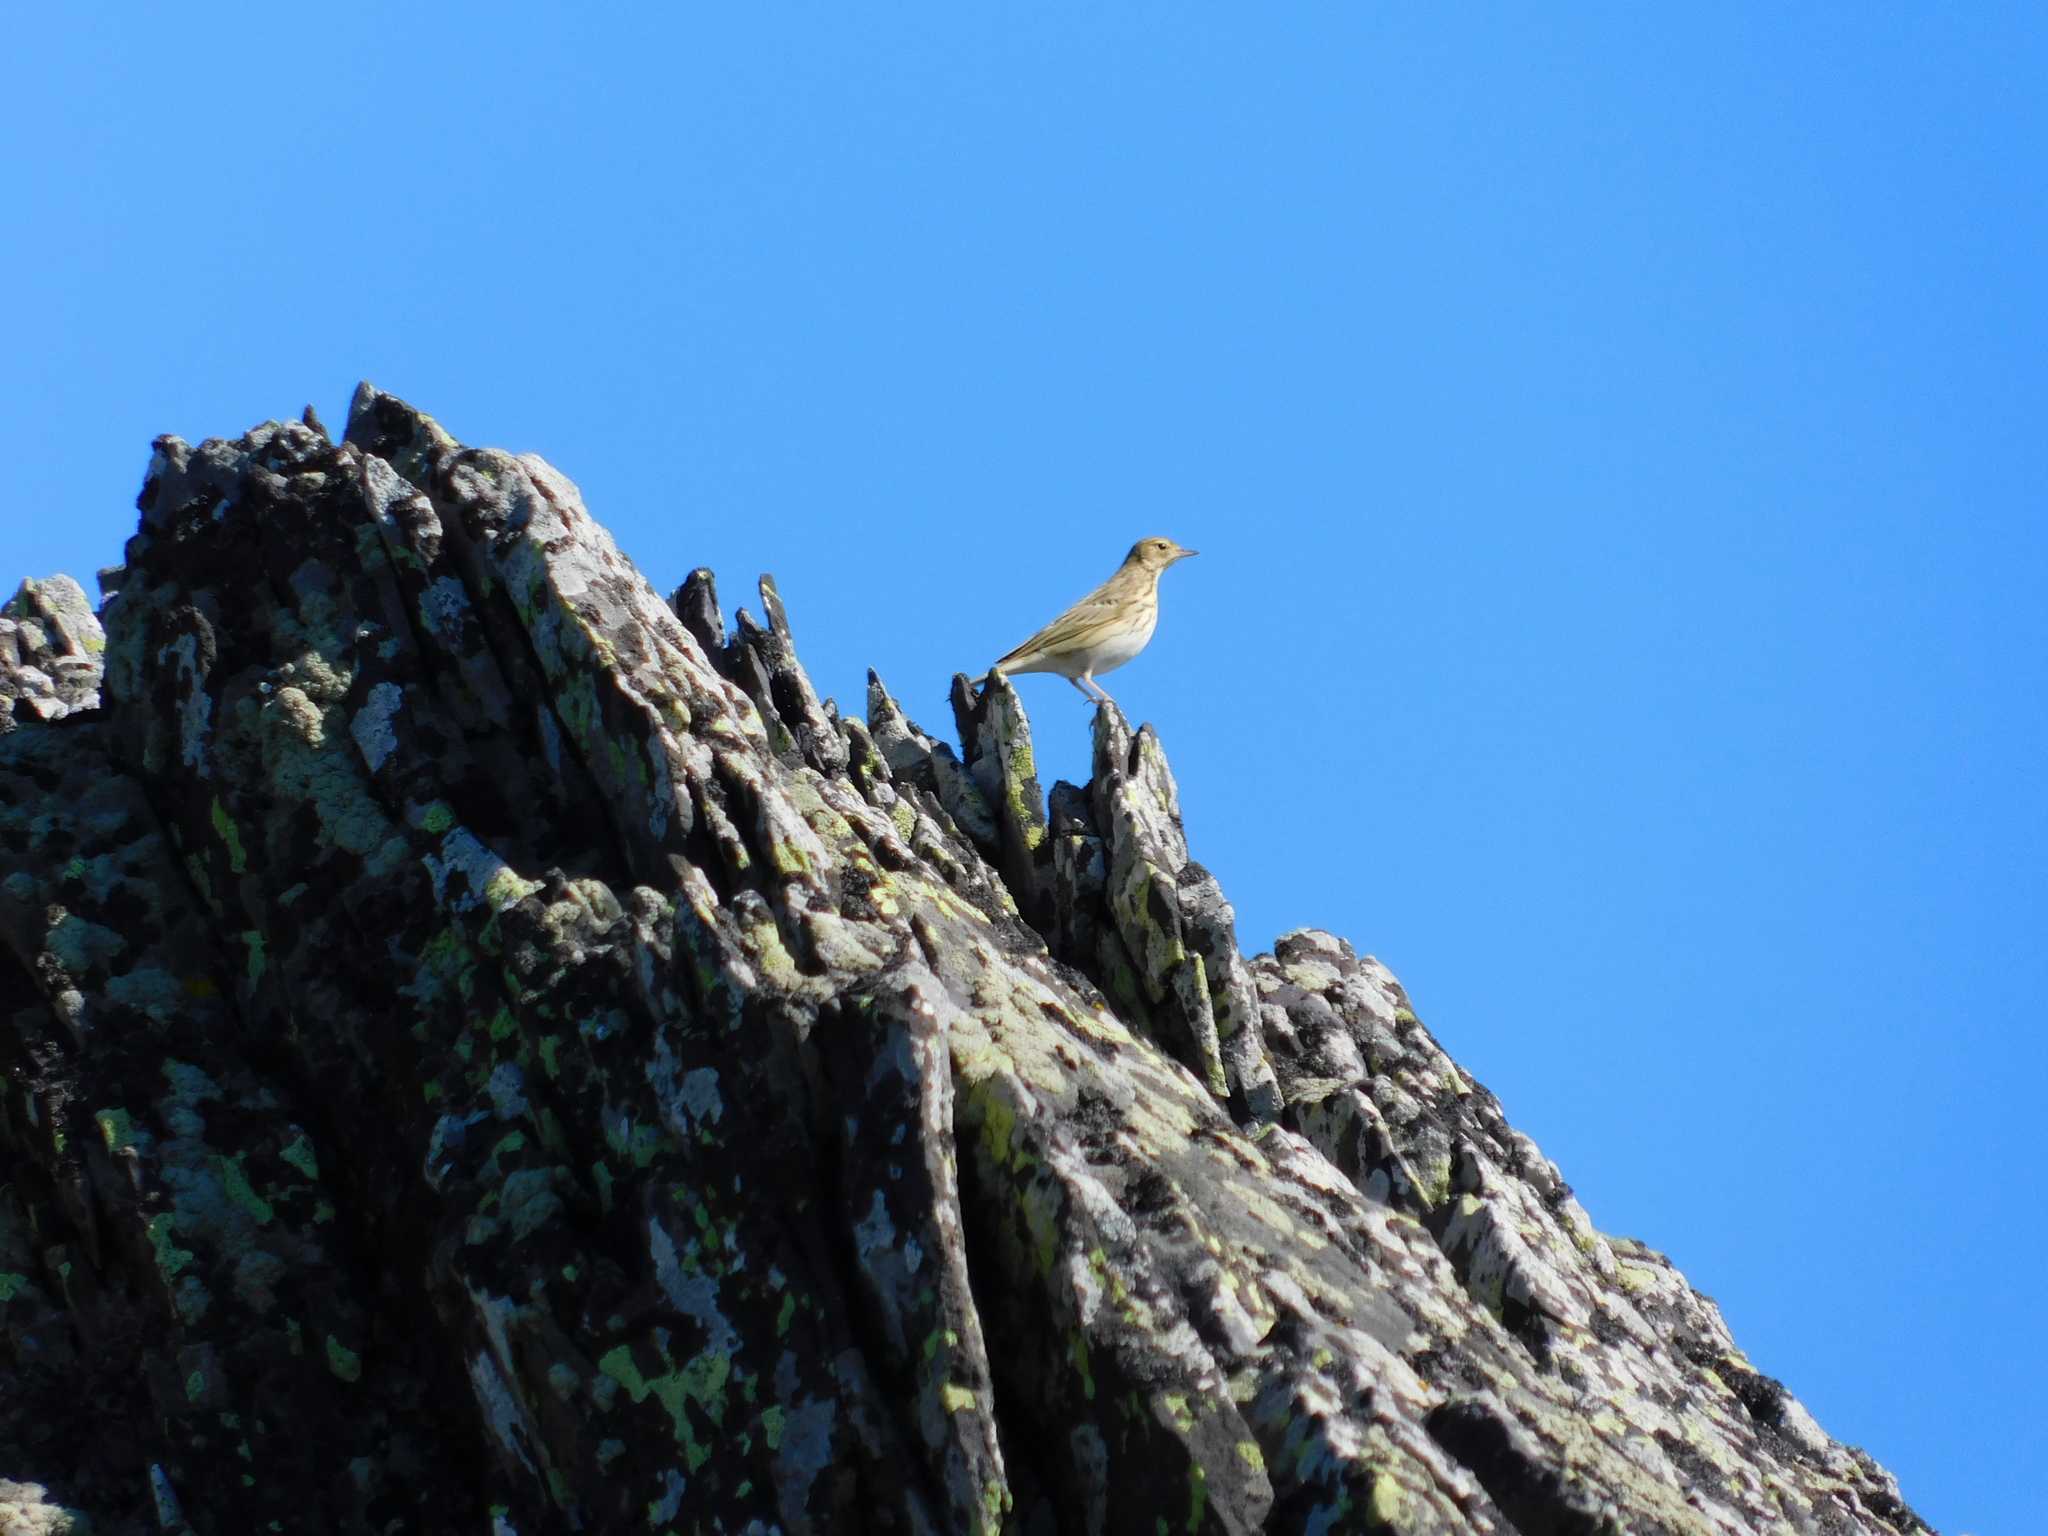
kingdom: Animalia
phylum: Chordata
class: Aves
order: Passeriformes
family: Motacillidae
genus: Anthus
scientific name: Anthus trivialis
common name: Tree pipit
